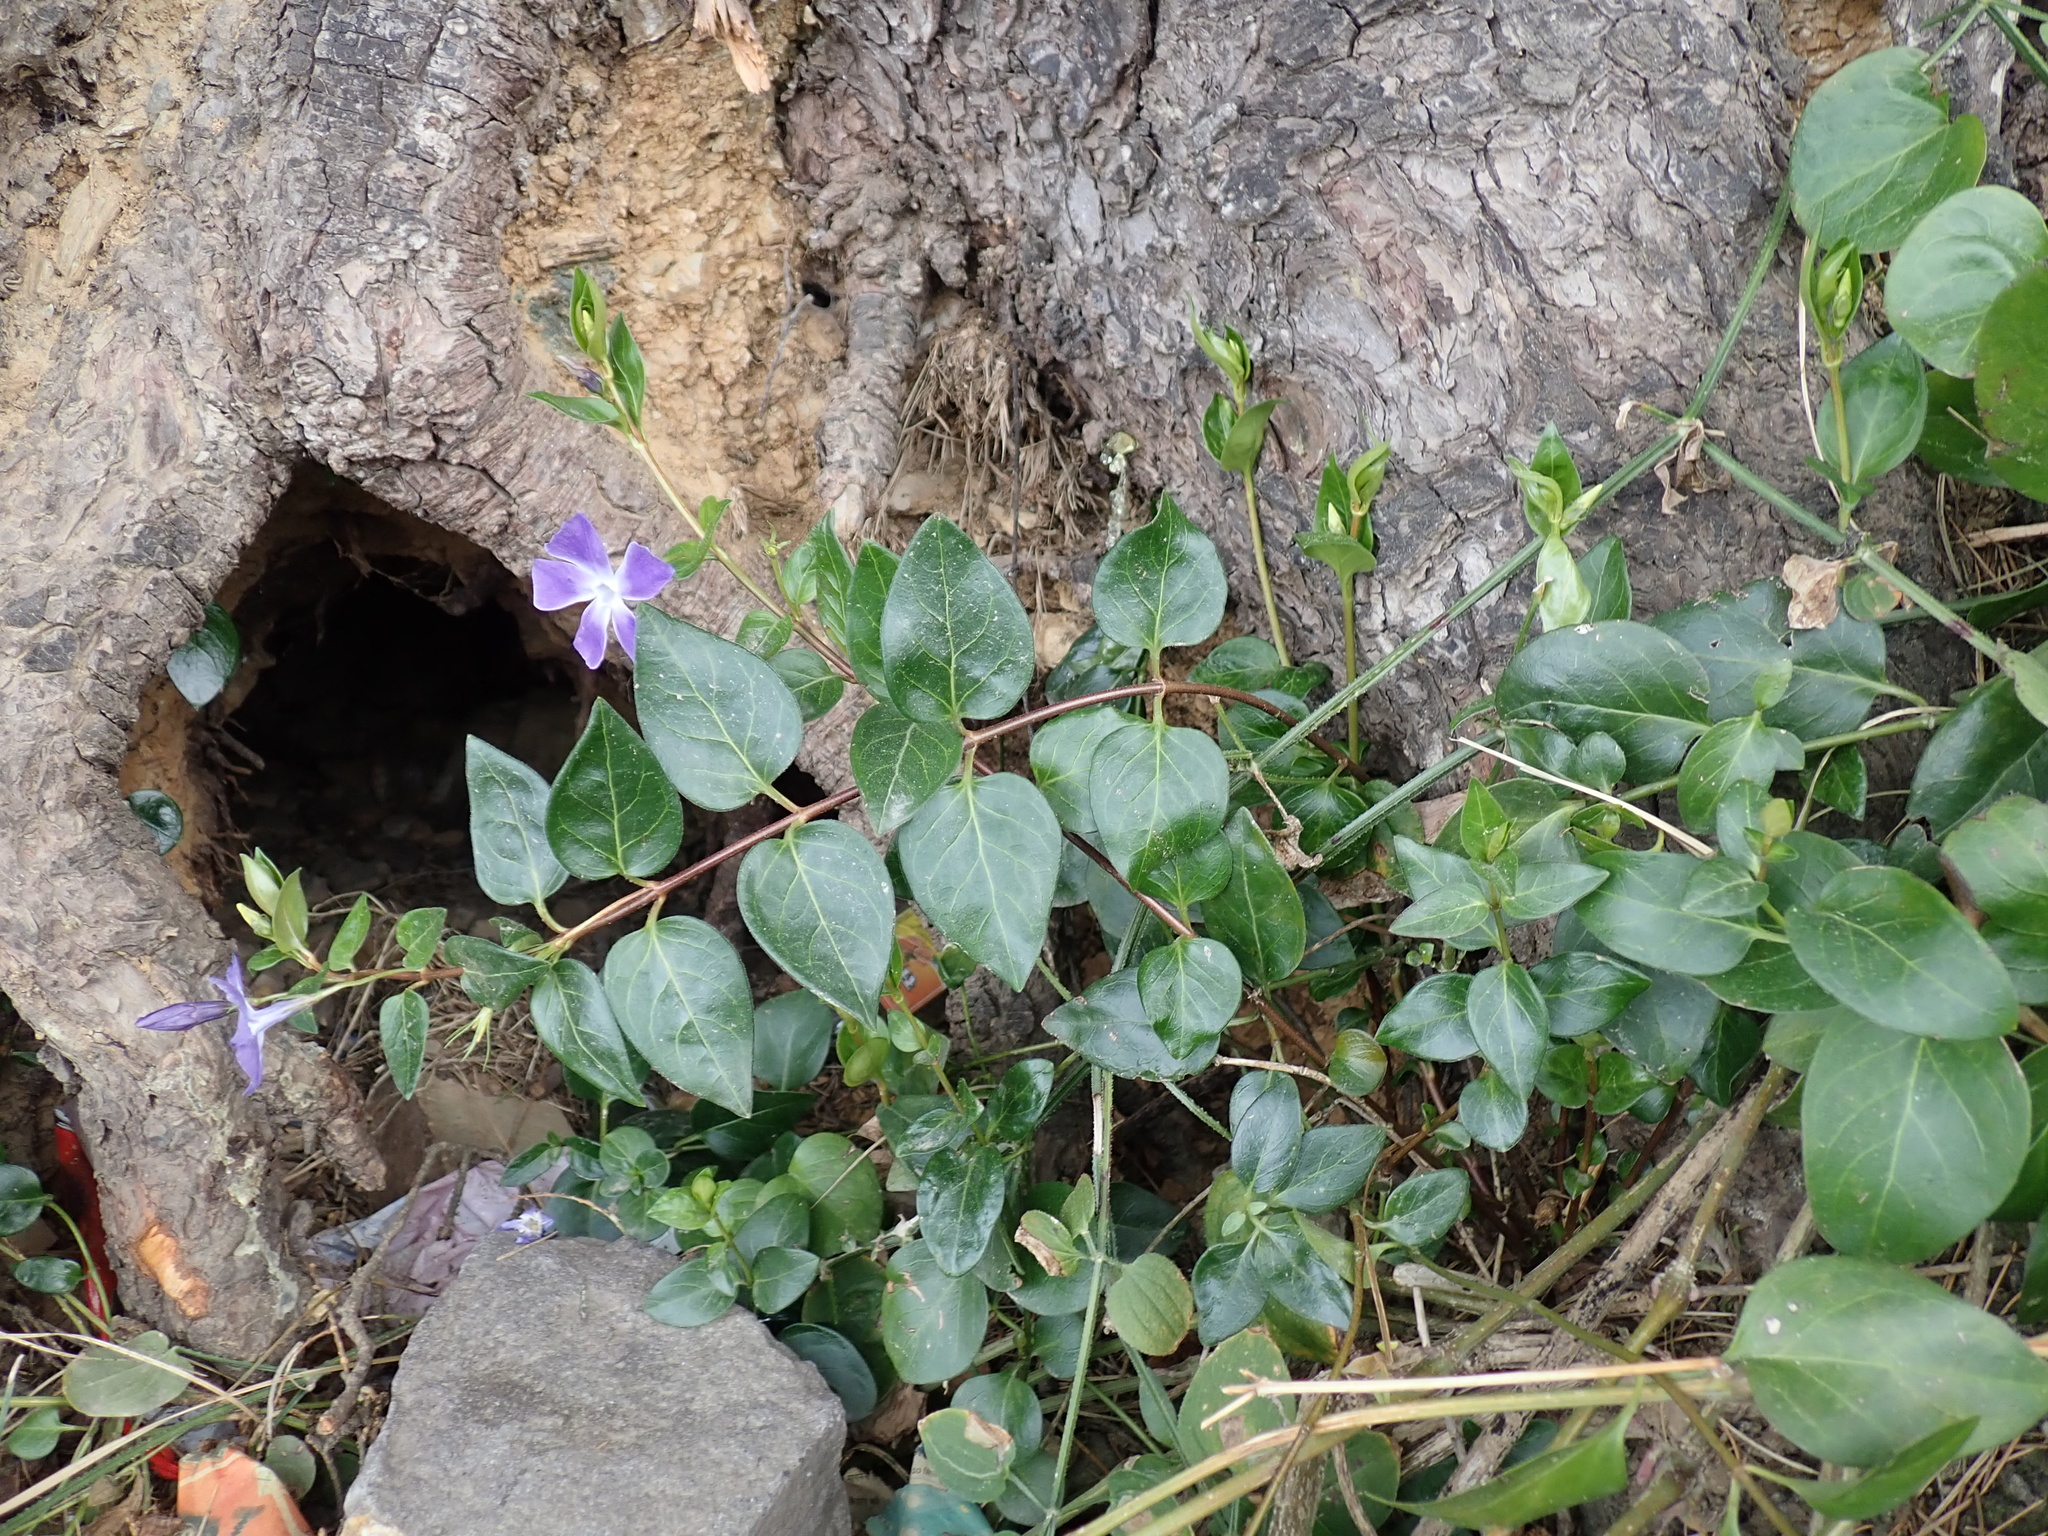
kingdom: Plantae
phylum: Tracheophyta
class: Magnoliopsida
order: Gentianales
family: Apocynaceae
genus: Vinca
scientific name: Vinca major
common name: Greater periwinkle
